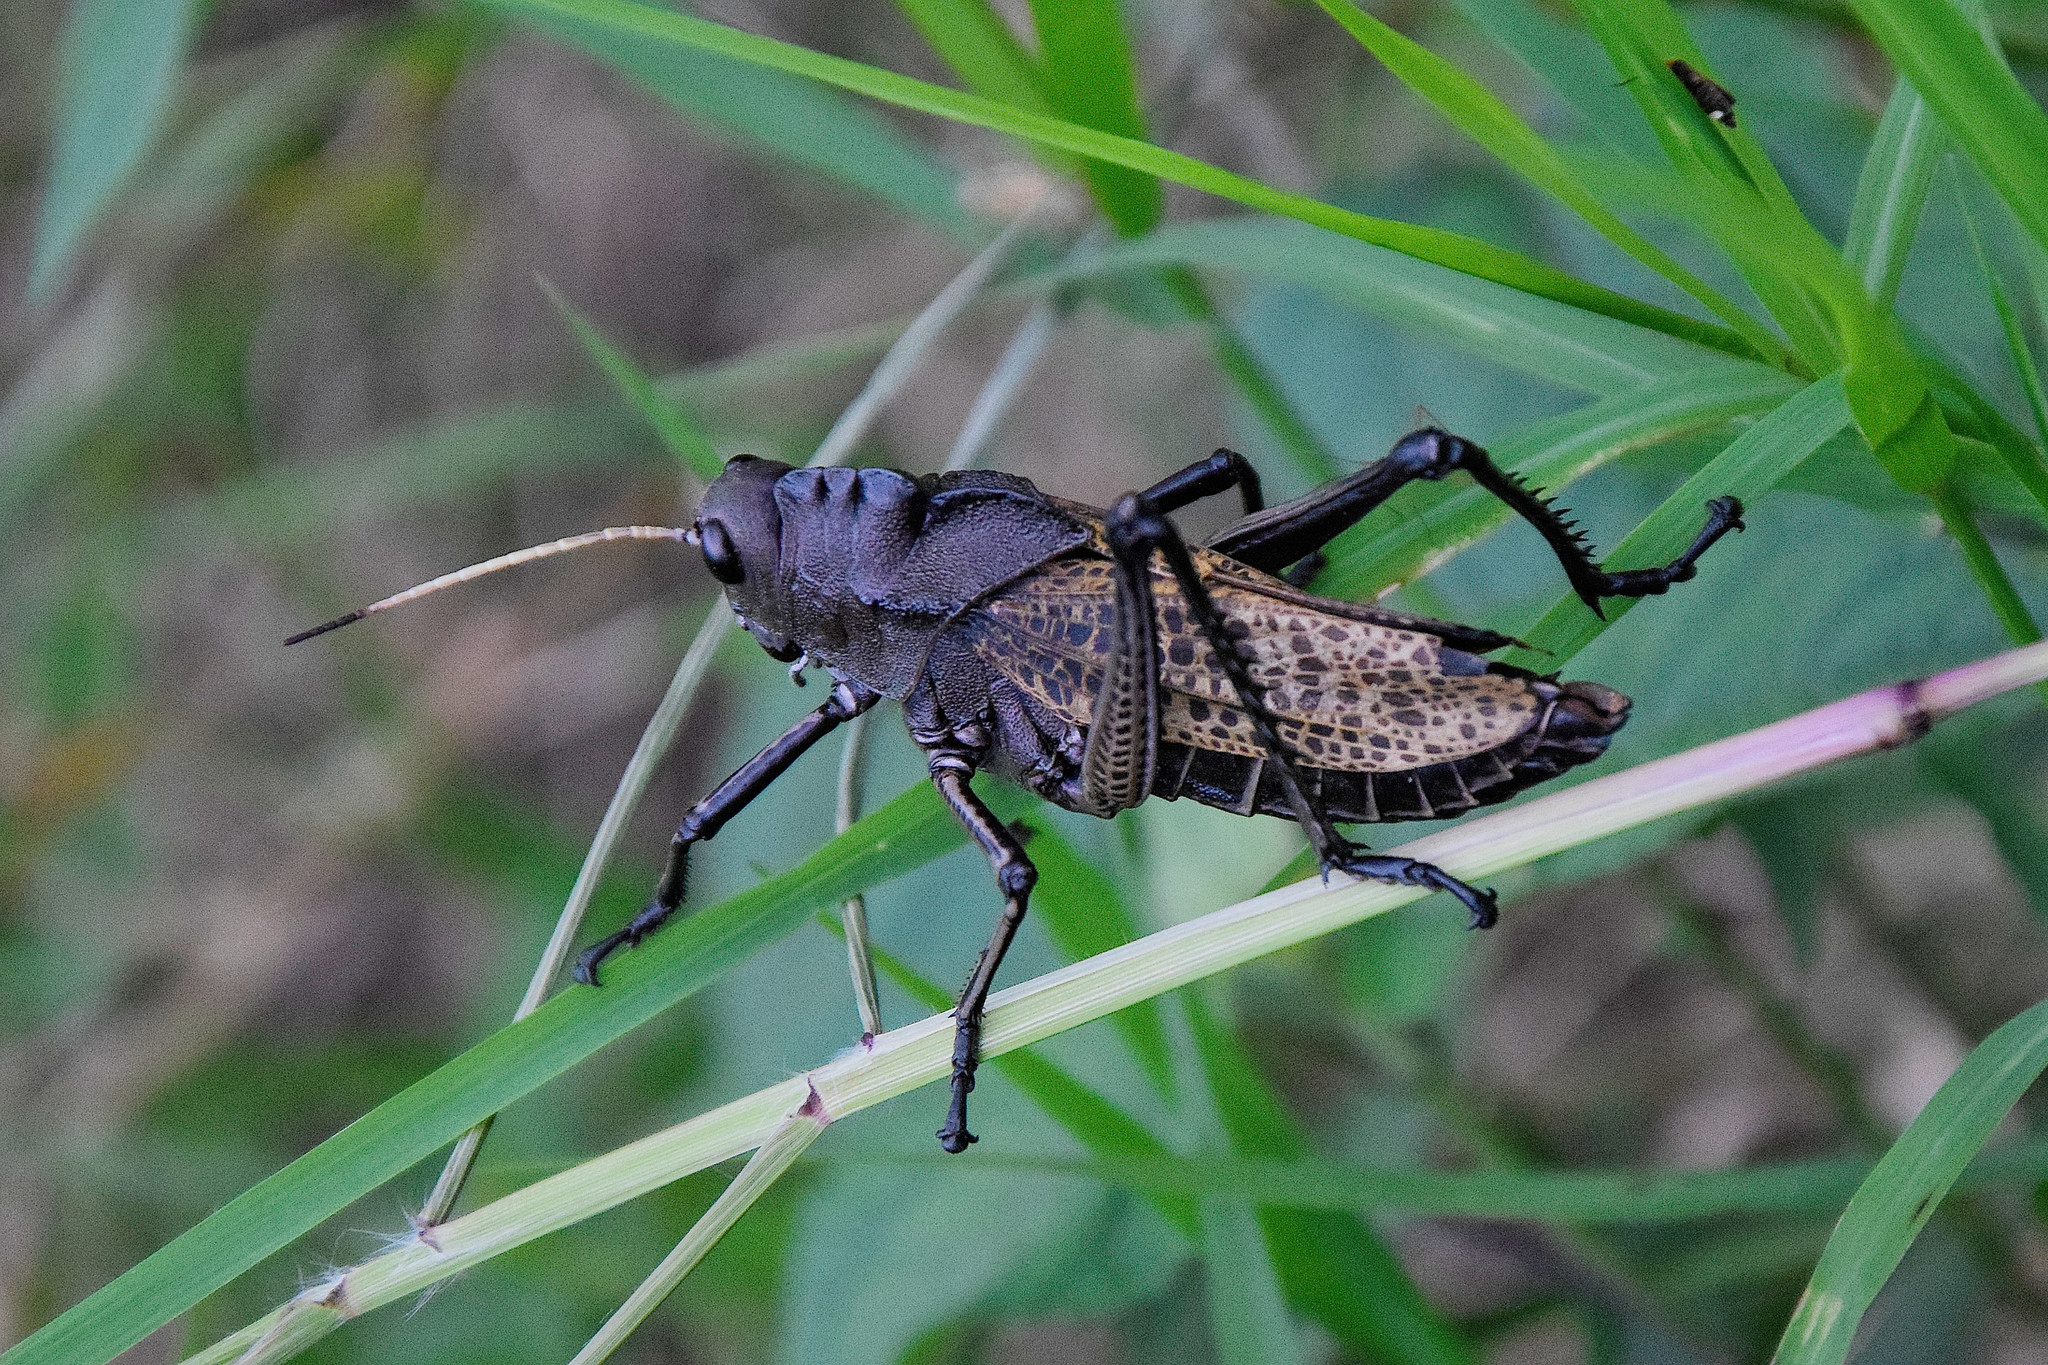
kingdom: Animalia
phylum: Arthropoda
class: Insecta
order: Orthoptera
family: Romaleidae
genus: Taeniopoda
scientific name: Taeniopoda centurio
